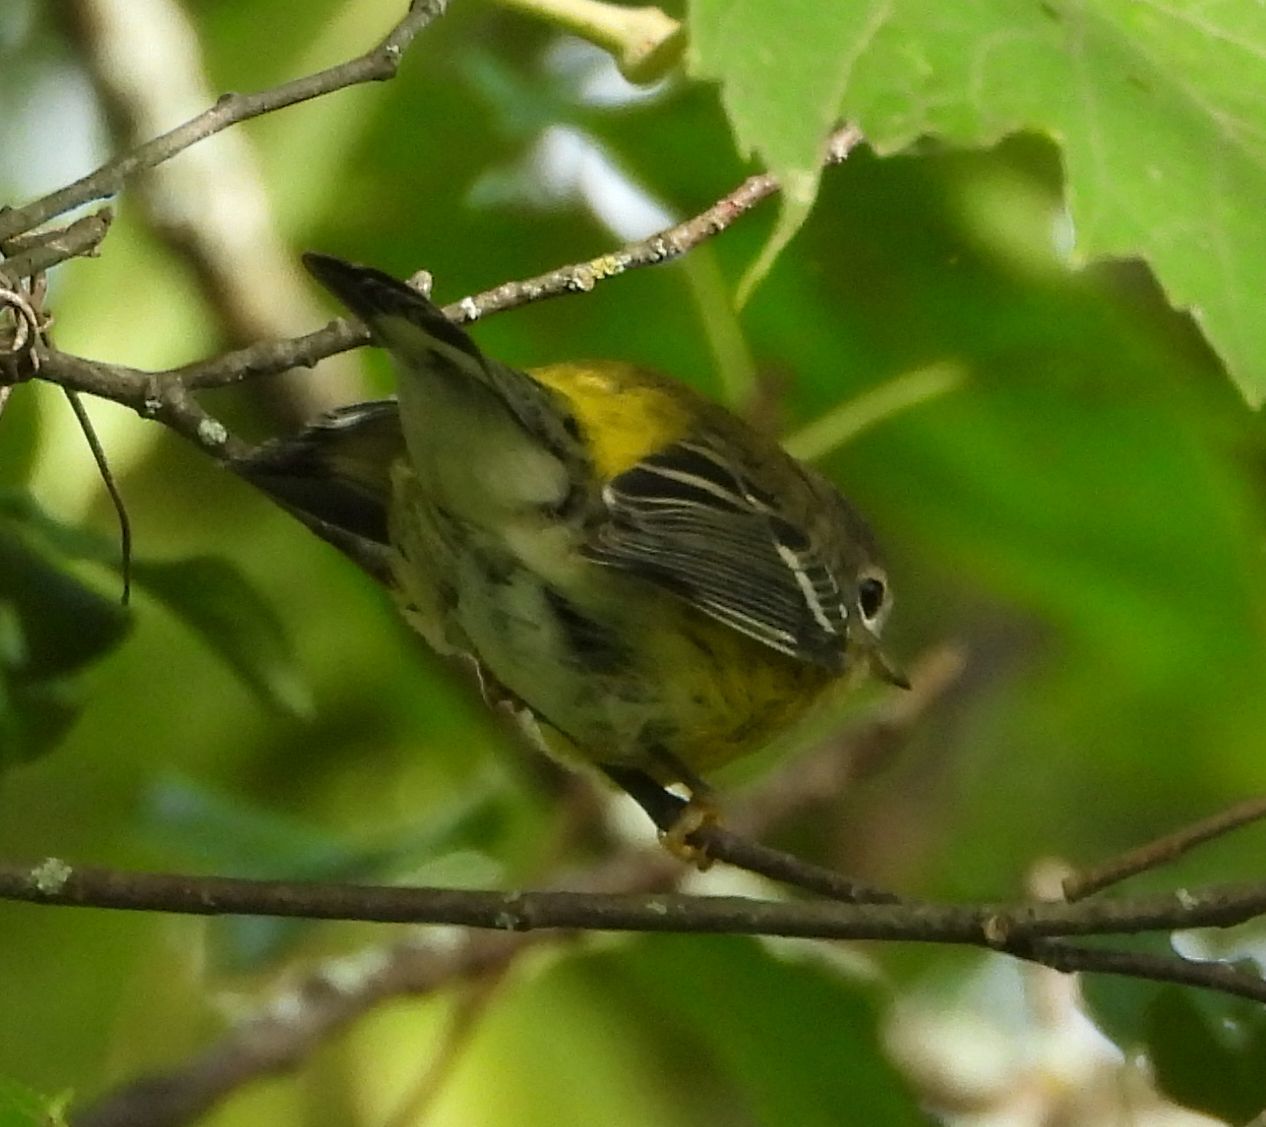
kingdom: Animalia
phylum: Chordata
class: Aves
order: Passeriformes
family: Parulidae
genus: Setophaga
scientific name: Setophaga magnolia
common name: Magnolia warbler
